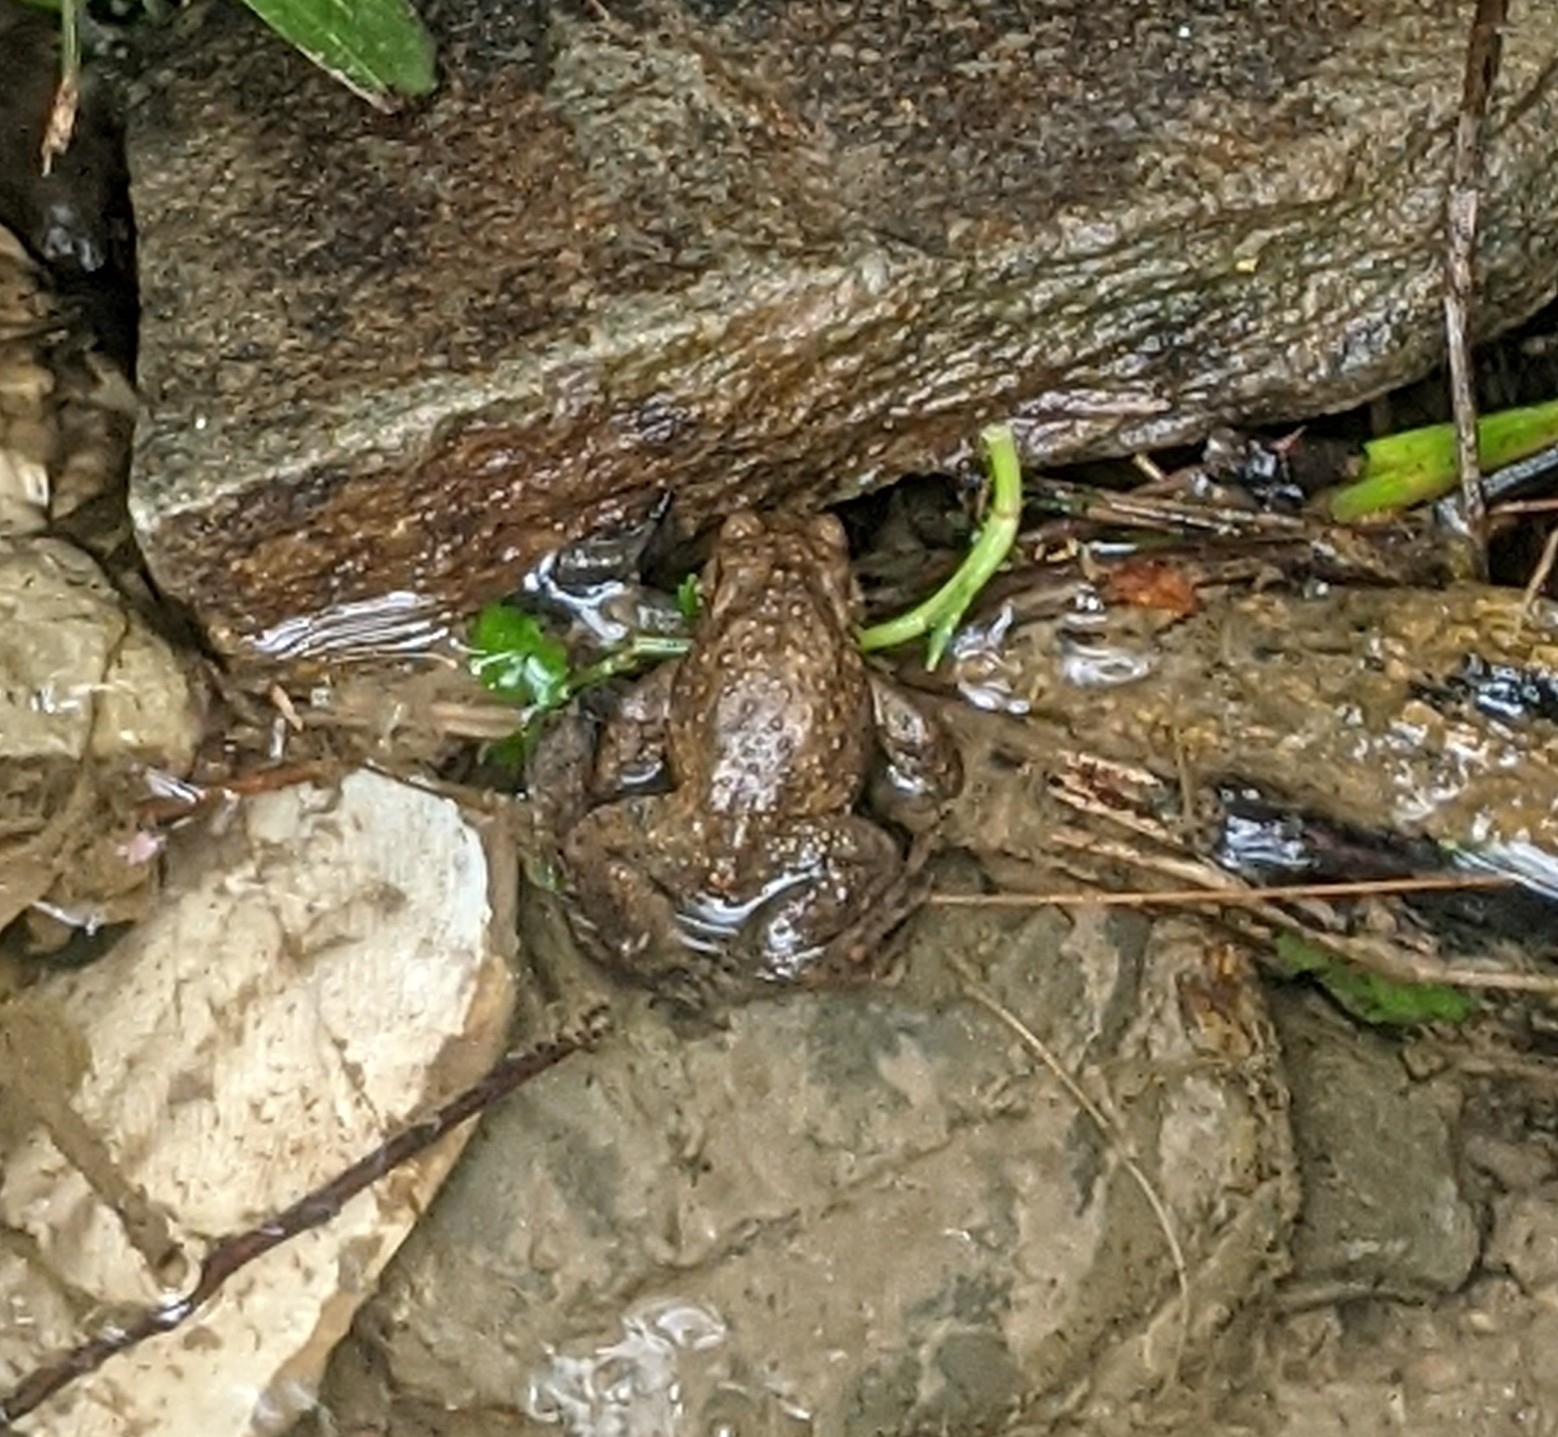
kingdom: Animalia
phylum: Chordata
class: Amphibia
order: Anura
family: Bufonidae
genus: Bufo
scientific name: Bufo bufo
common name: Common toad
